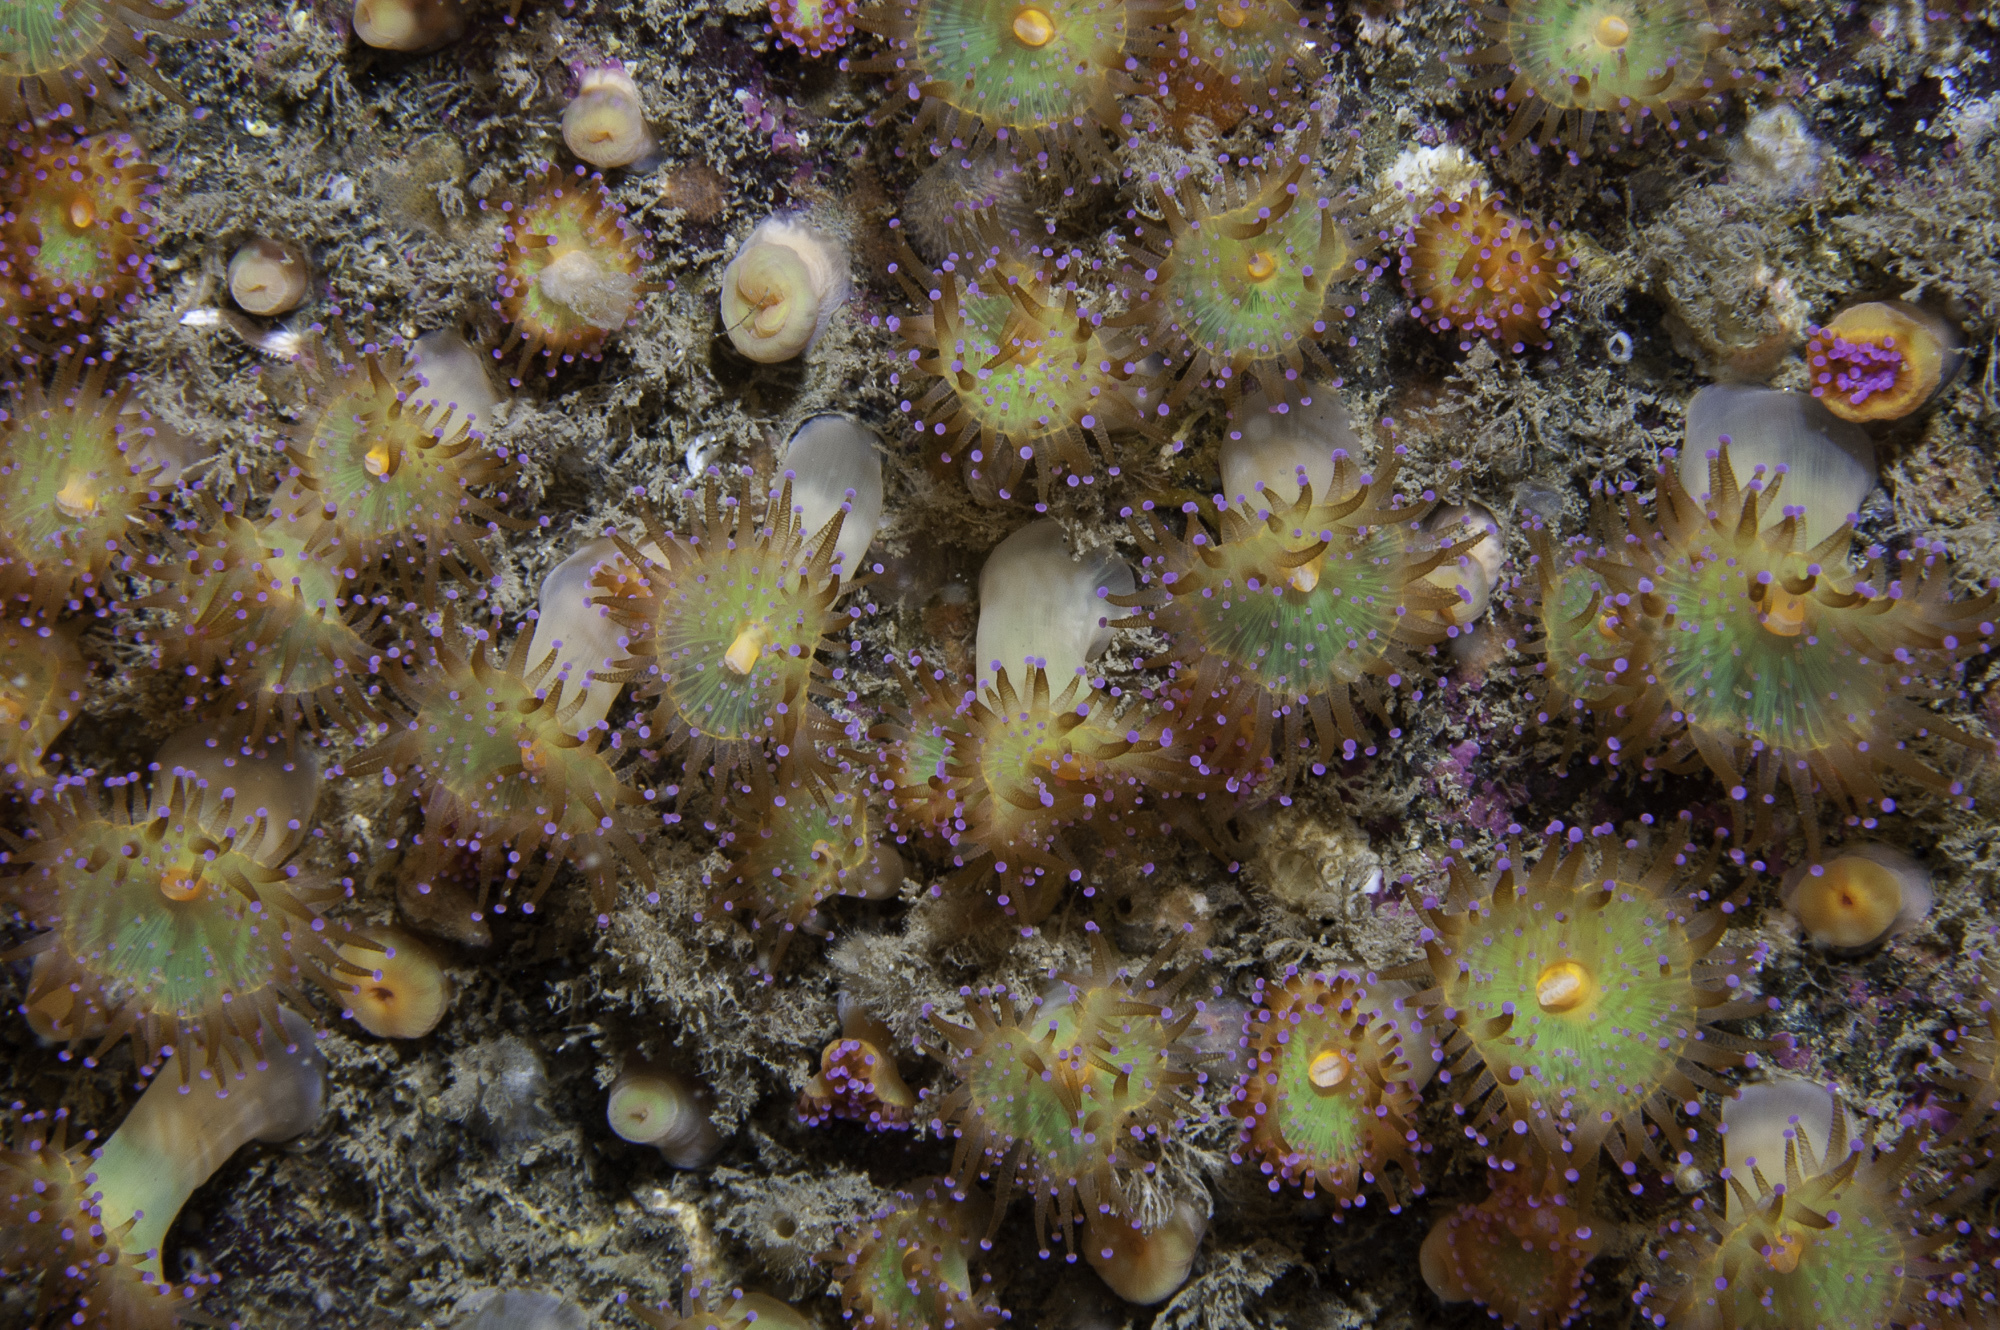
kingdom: Animalia
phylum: Cnidaria
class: Anthozoa
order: Corallimorpharia
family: Corallimorphidae
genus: Corynactis
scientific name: Corynactis viridis
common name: Jewel anemone
